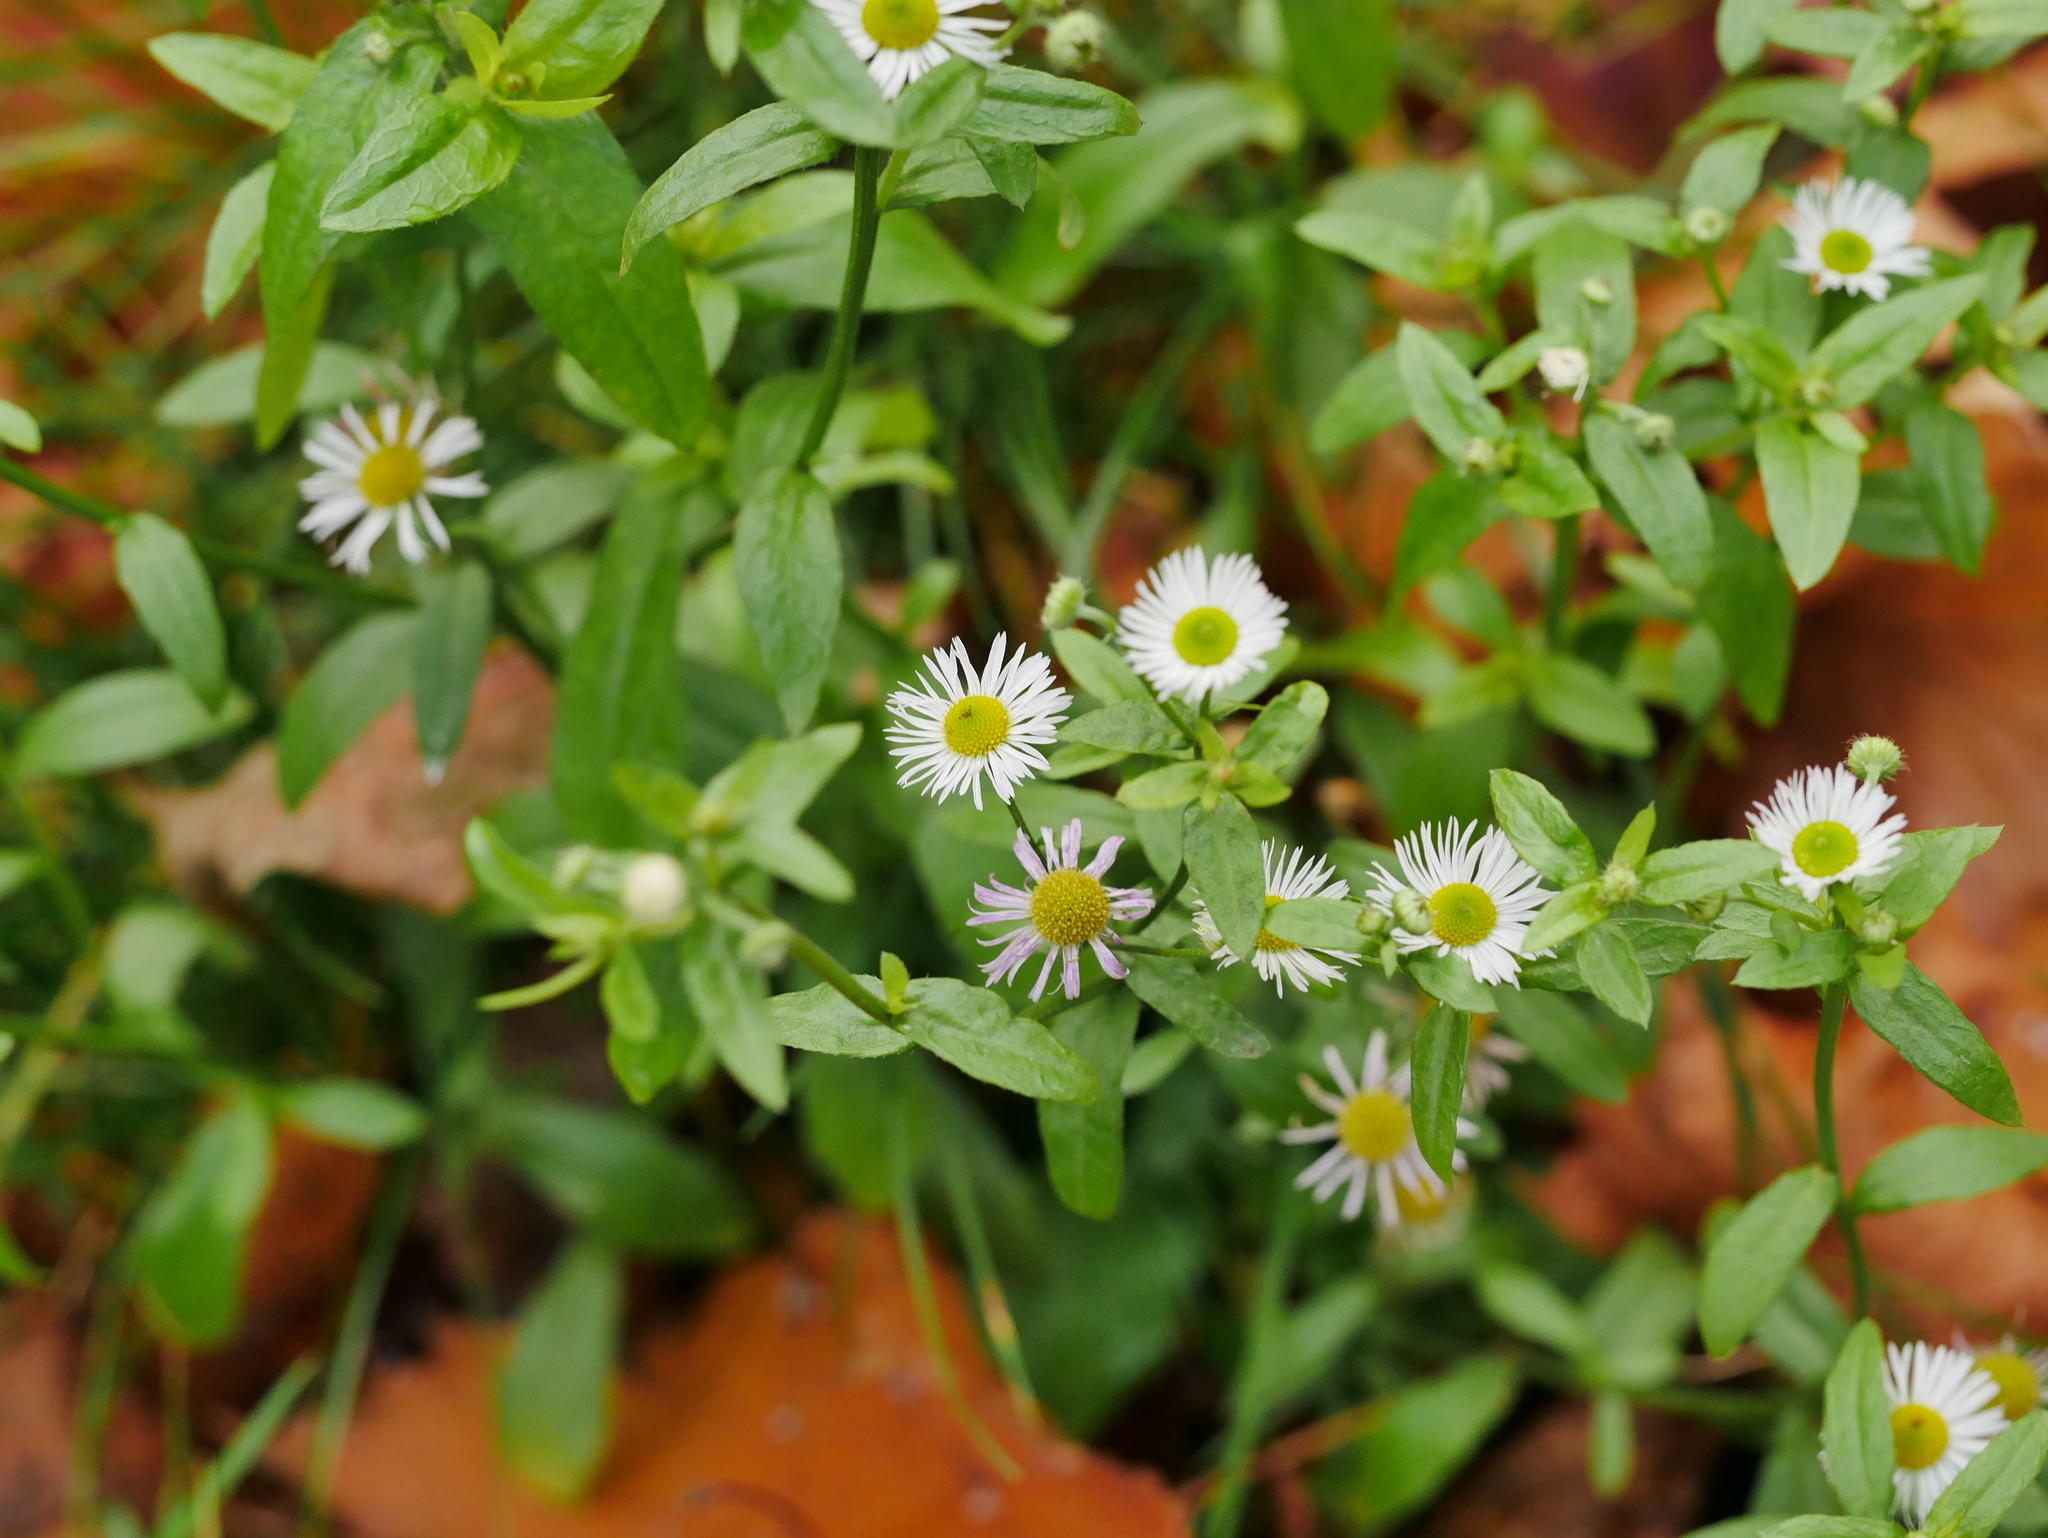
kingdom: Plantae
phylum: Tracheophyta
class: Magnoliopsida
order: Asterales
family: Asteraceae
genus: Erigeron
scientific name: Erigeron annuus
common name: Tall fleabane
